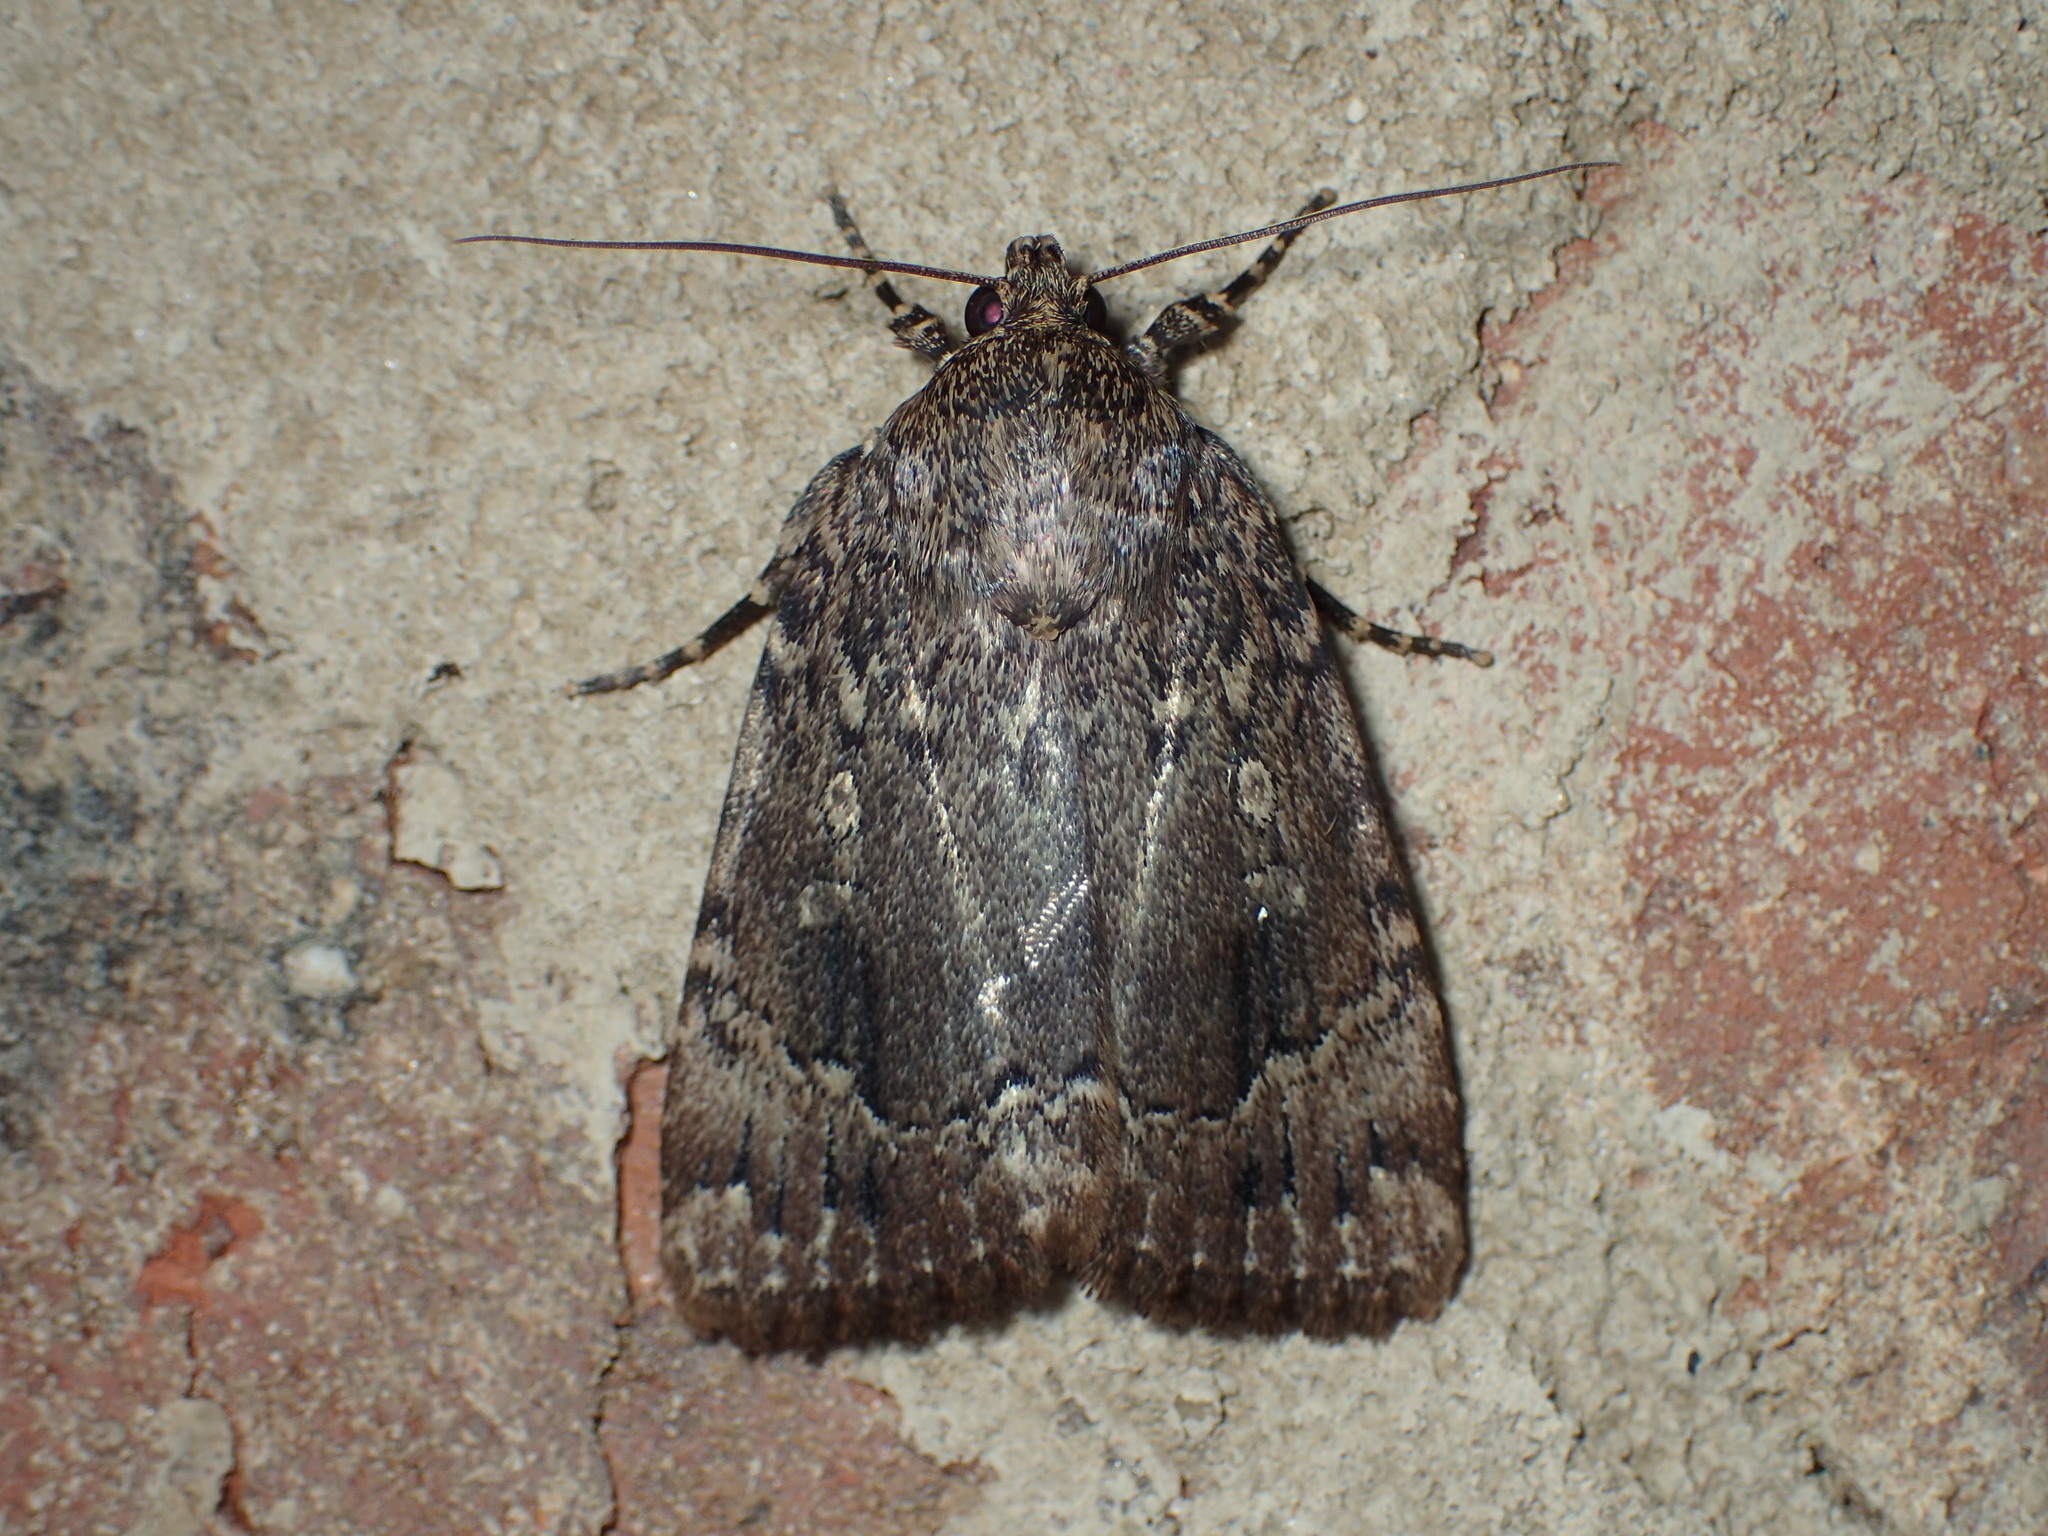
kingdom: Animalia
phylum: Arthropoda
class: Insecta
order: Lepidoptera
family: Noctuidae
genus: Amphipyra
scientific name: Amphipyra pyramidoides
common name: American copper underwing
